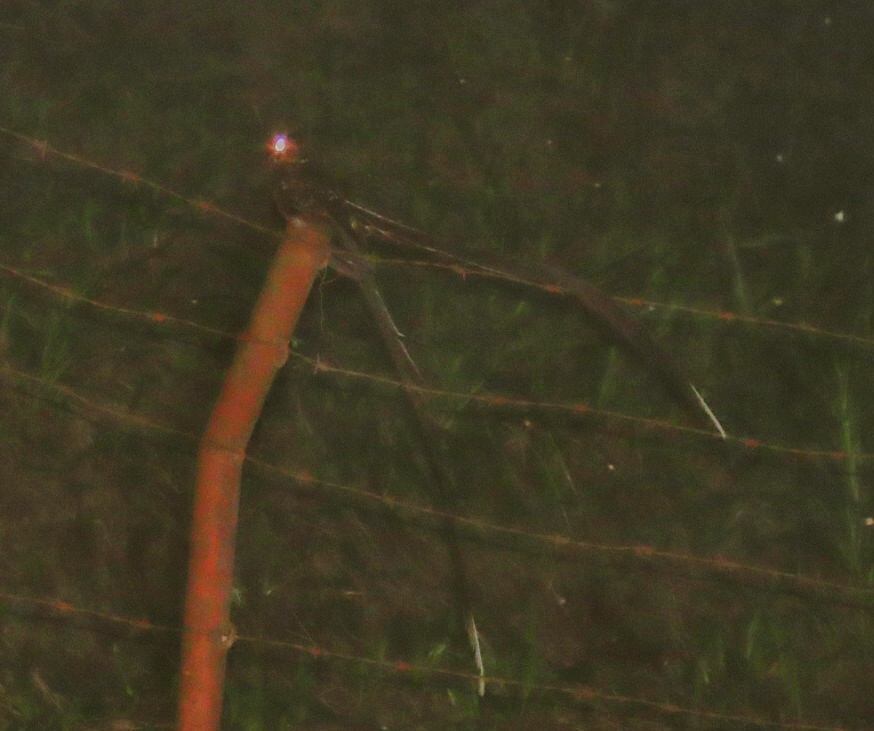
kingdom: Animalia
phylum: Chordata
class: Aves
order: Caprimulgiformes
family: Caprimulgidae
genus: Uropsalis
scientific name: Uropsalis lyra
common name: Lyre-tailed nightjar
